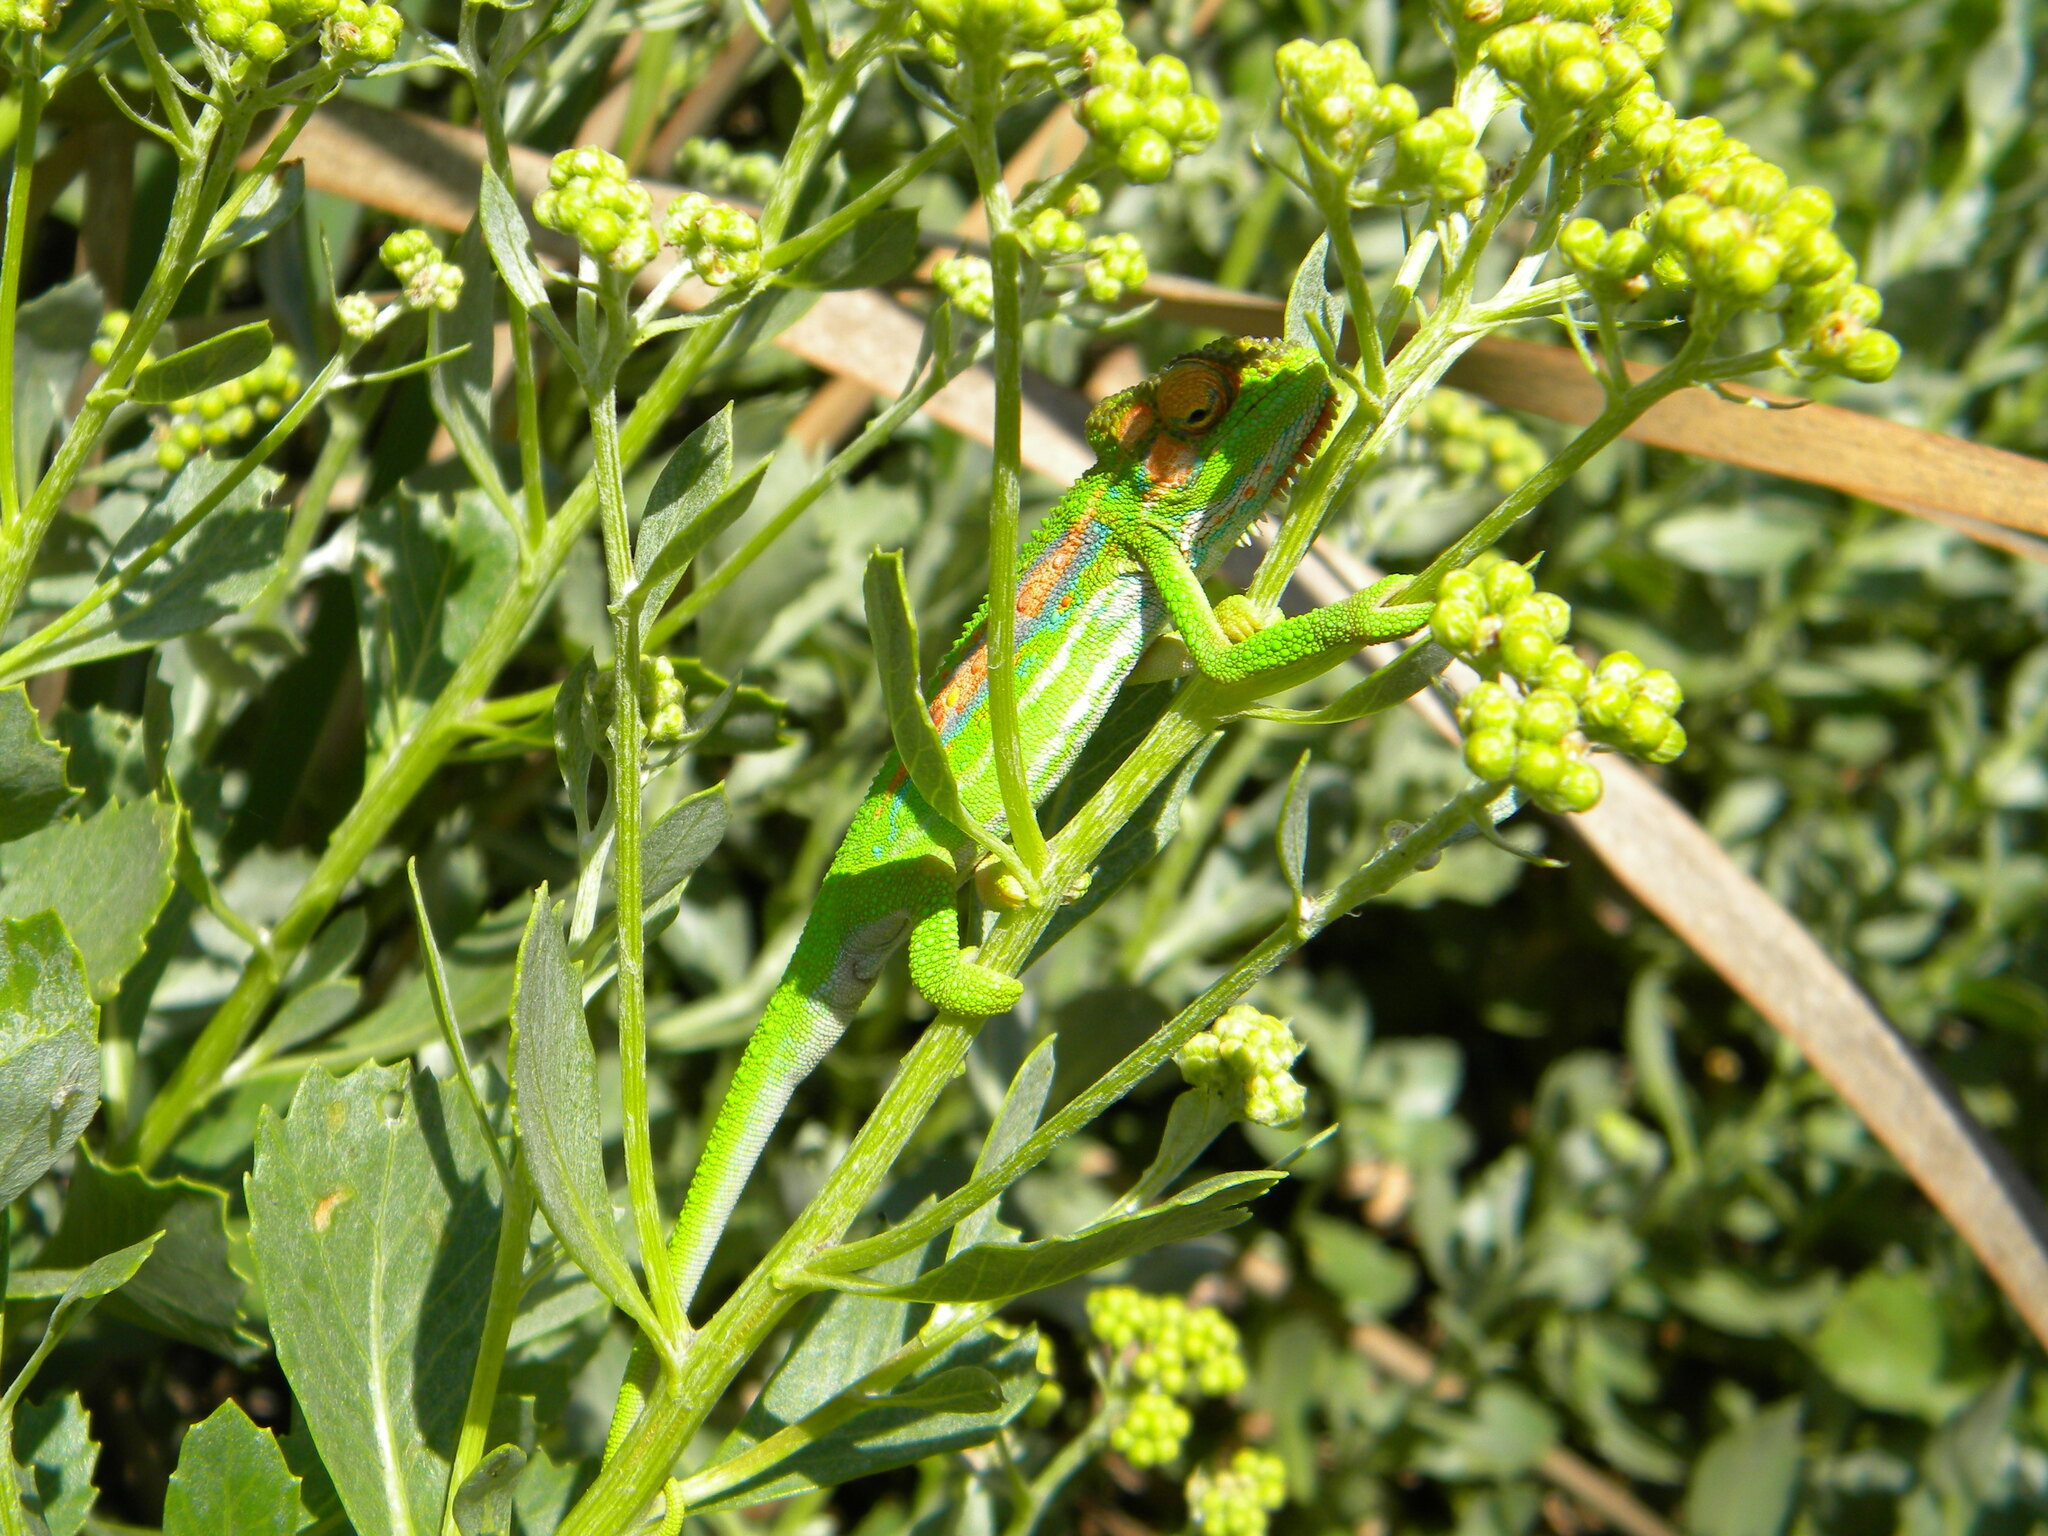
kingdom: Animalia
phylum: Chordata
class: Squamata
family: Chamaeleonidae
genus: Bradypodion
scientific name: Bradypodion pumilum
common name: Cape dwarf chameleon
